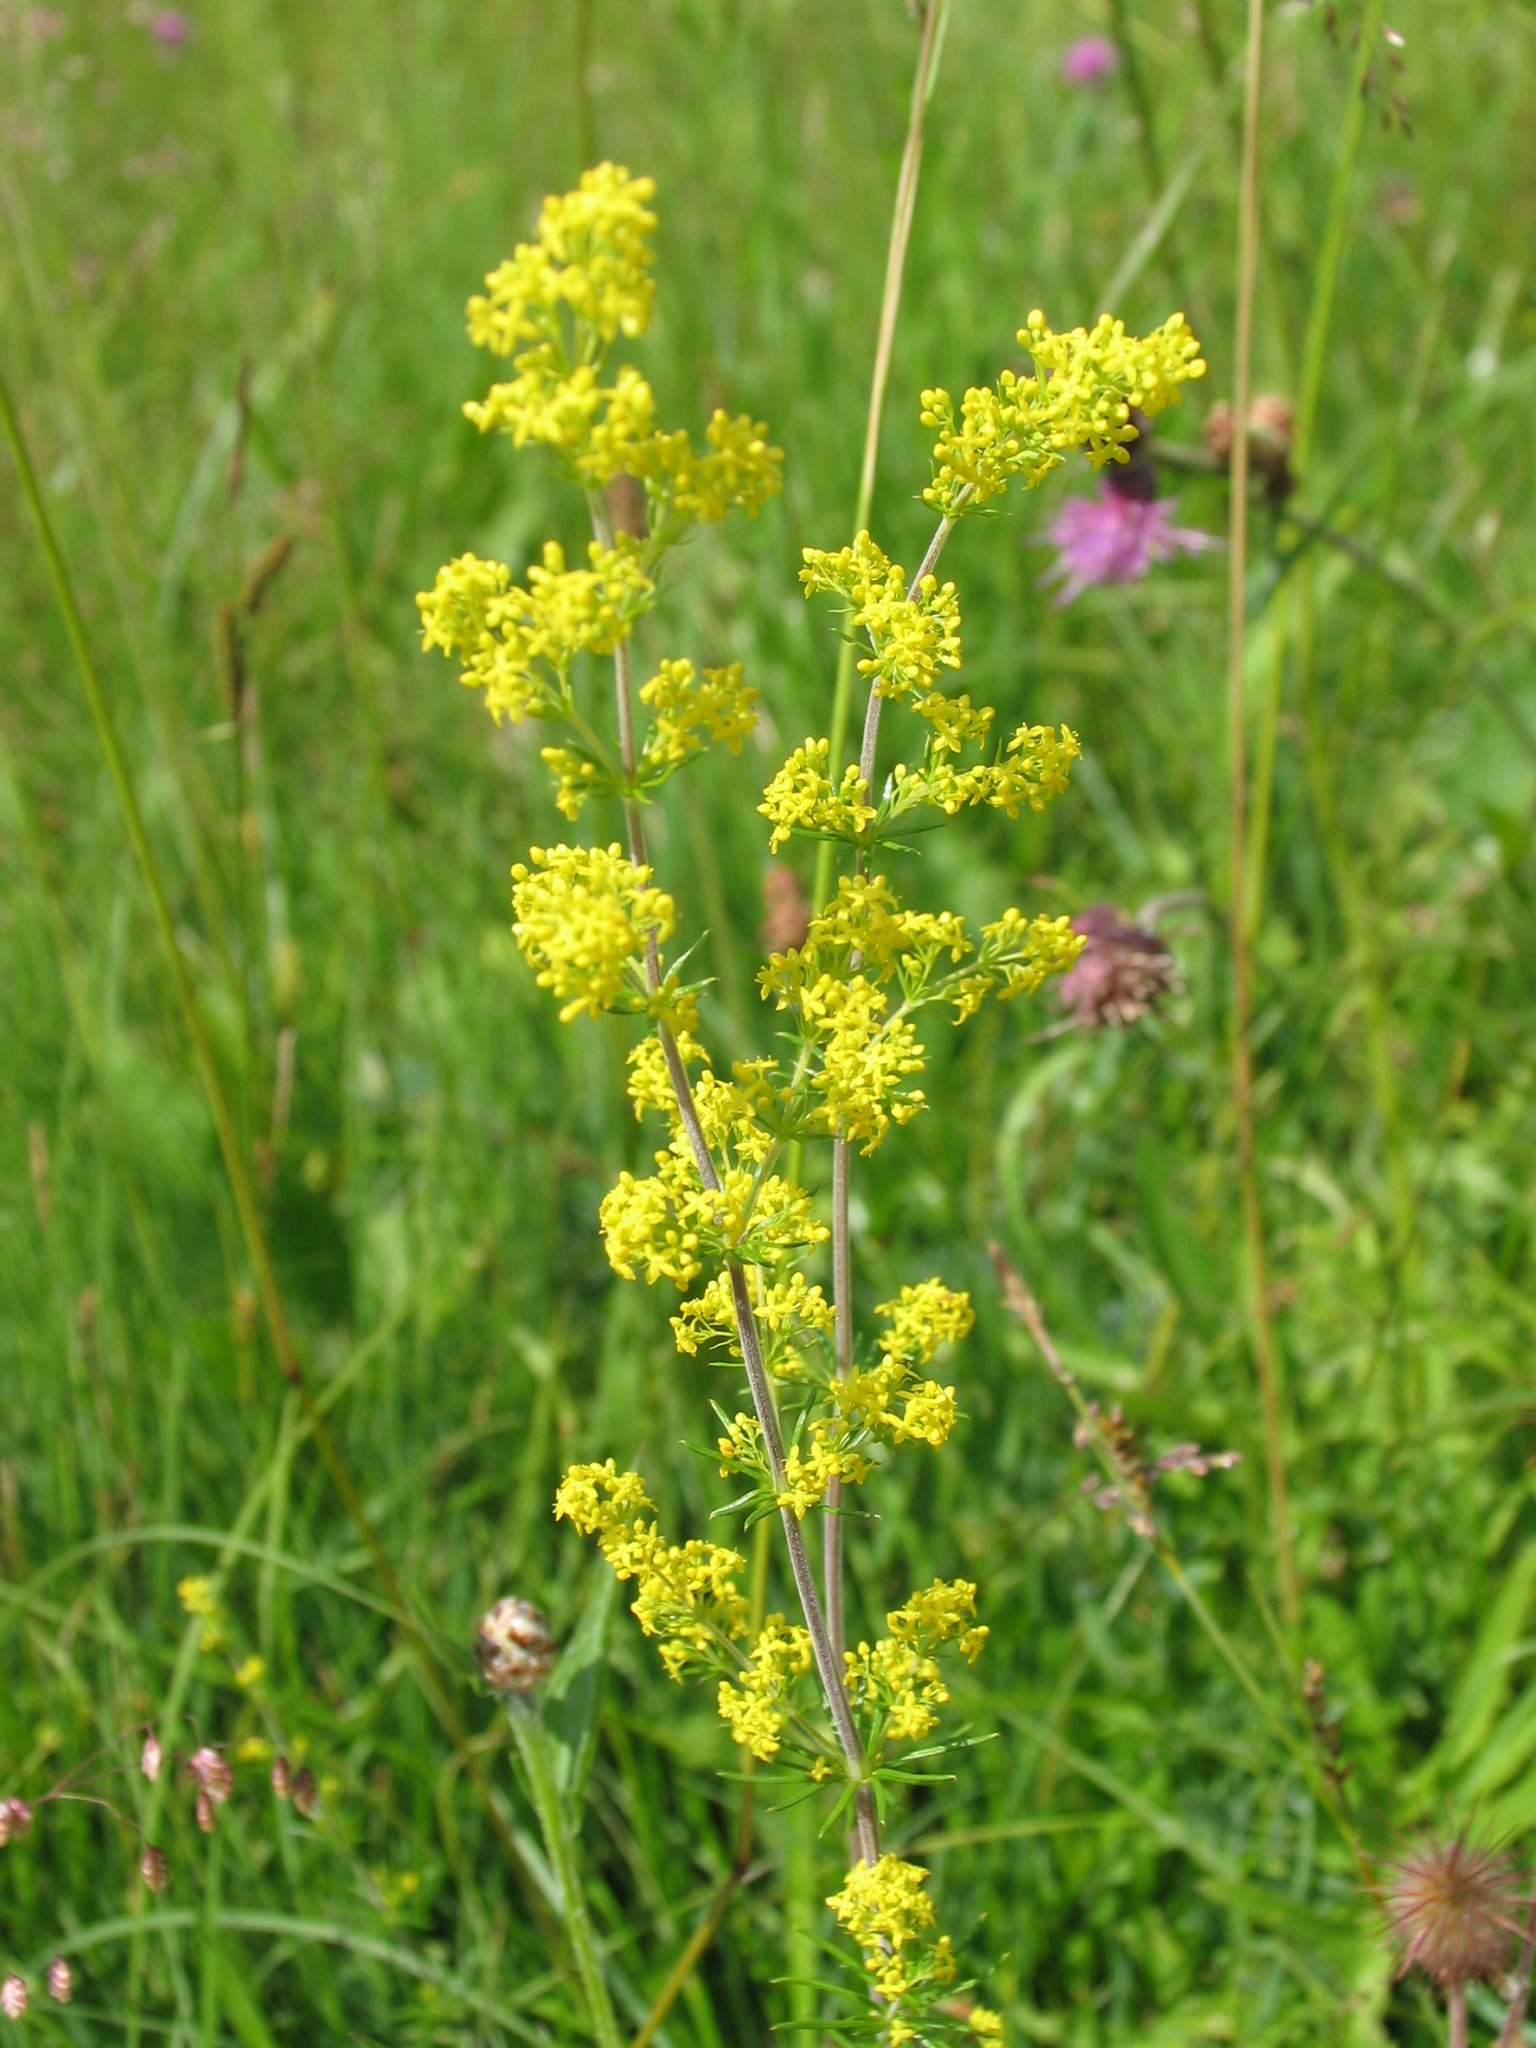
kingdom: Plantae
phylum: Tracheophyta
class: Magnoliopsida
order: Gentianales
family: Rubiaceae
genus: Galium
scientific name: Galium verum
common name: Lady's bedstraw
